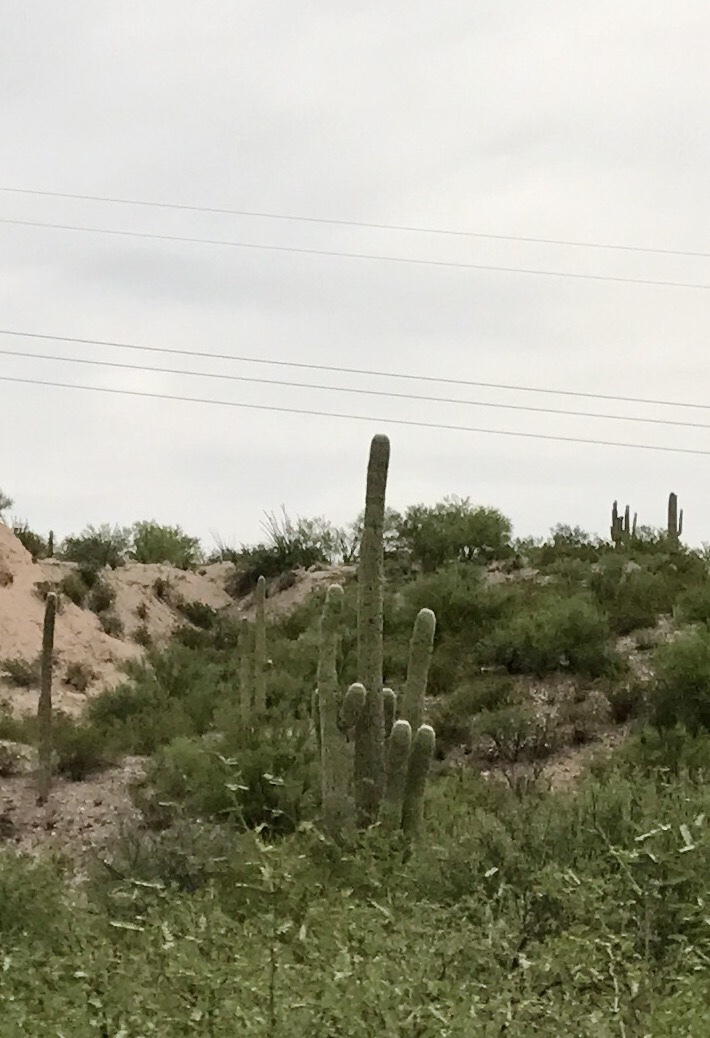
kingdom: Plantae
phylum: Tracheophyta
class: Magnoliopsida
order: Caryophyllales
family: Cactaceae
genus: Carnegiea
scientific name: Carnegiea gigantea
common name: Saguaro
